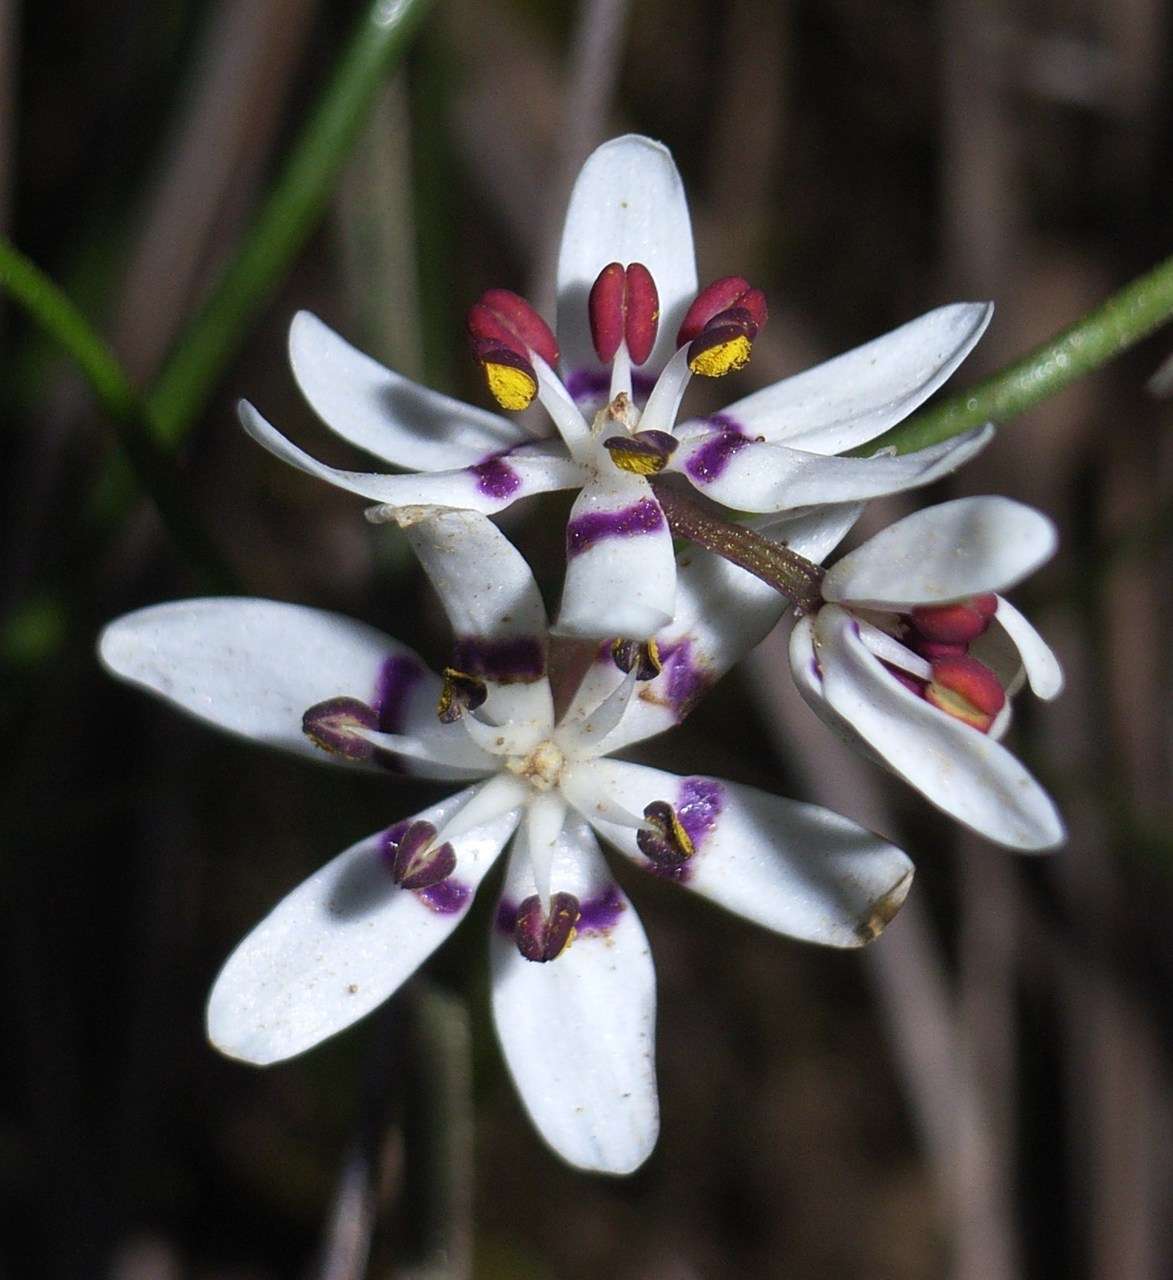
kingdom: Plantae
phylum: Tracheophyta
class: Liliopsida
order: Liliales
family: Colchicaceae
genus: Wurmbea
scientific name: Wurmbea dioica
